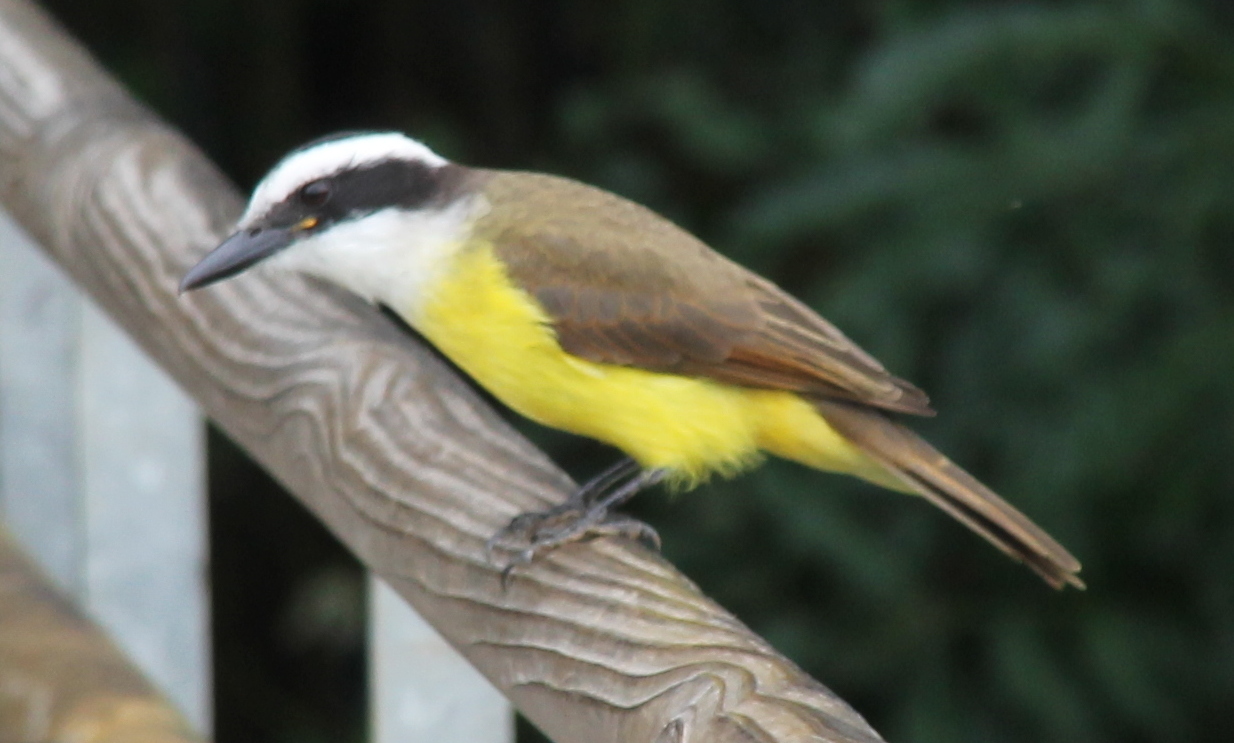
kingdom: Animalia
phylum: Chordata
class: Aves
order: Passeriformes
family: Tyrannidae
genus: Pitangus
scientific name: Pitangus sulphuratus
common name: Great kiskadee
